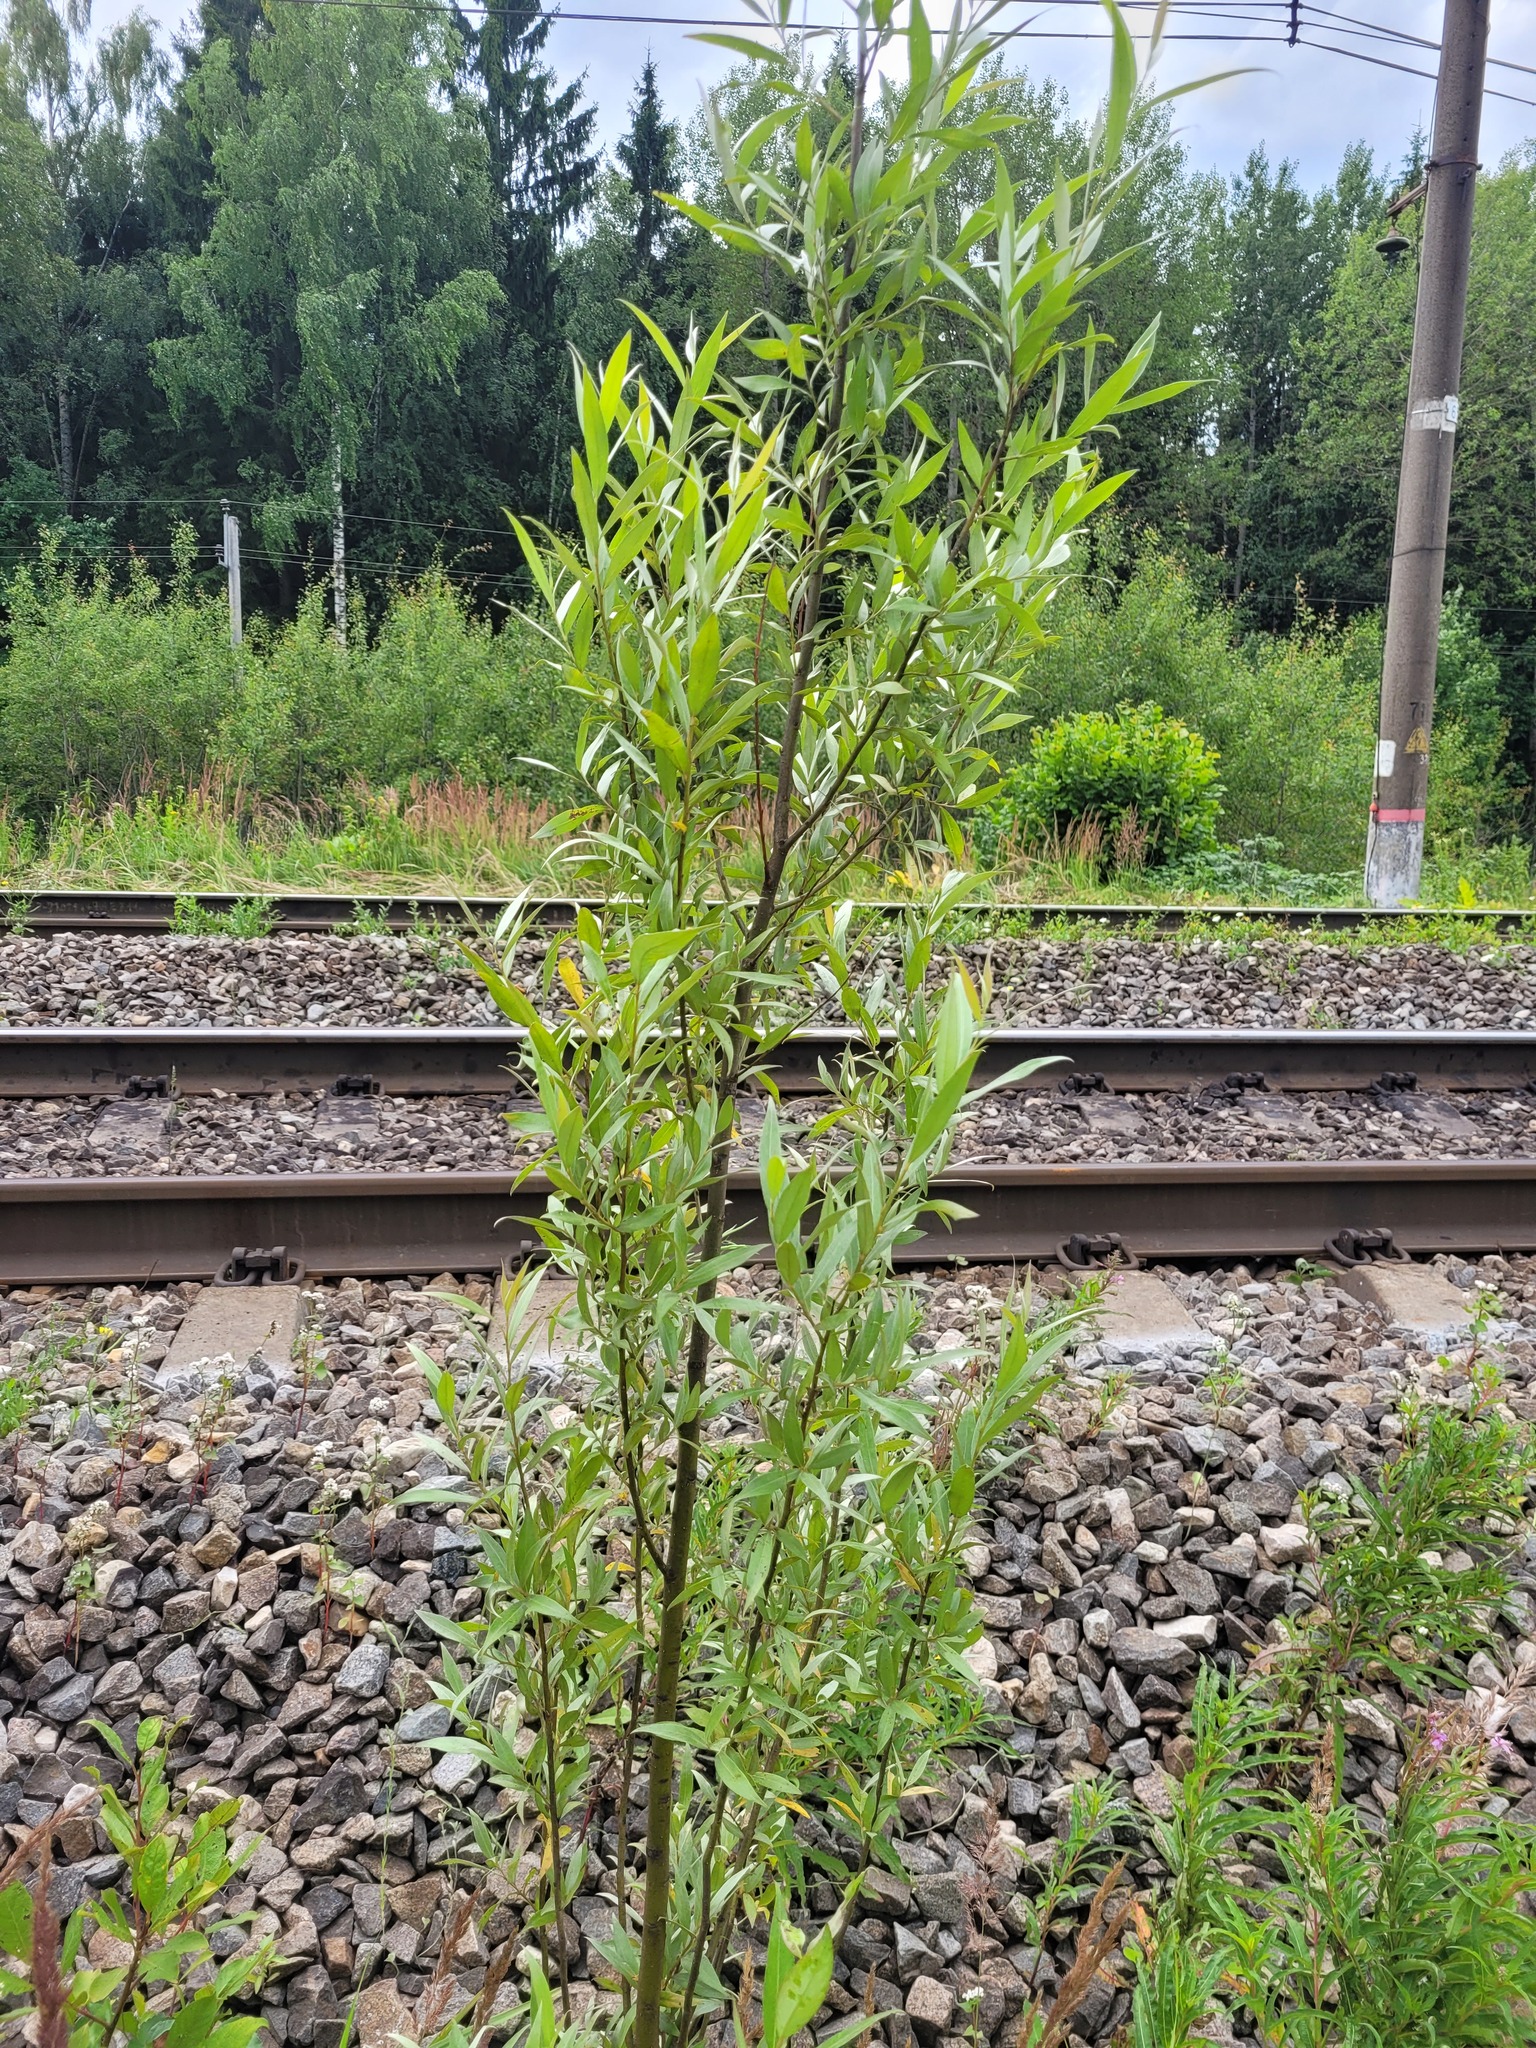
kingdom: Plantae
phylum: Tracheophyta
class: Magnoliopsida
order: Malpighiales
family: Salicaceae
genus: Salix
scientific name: Salix alba
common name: White willow
